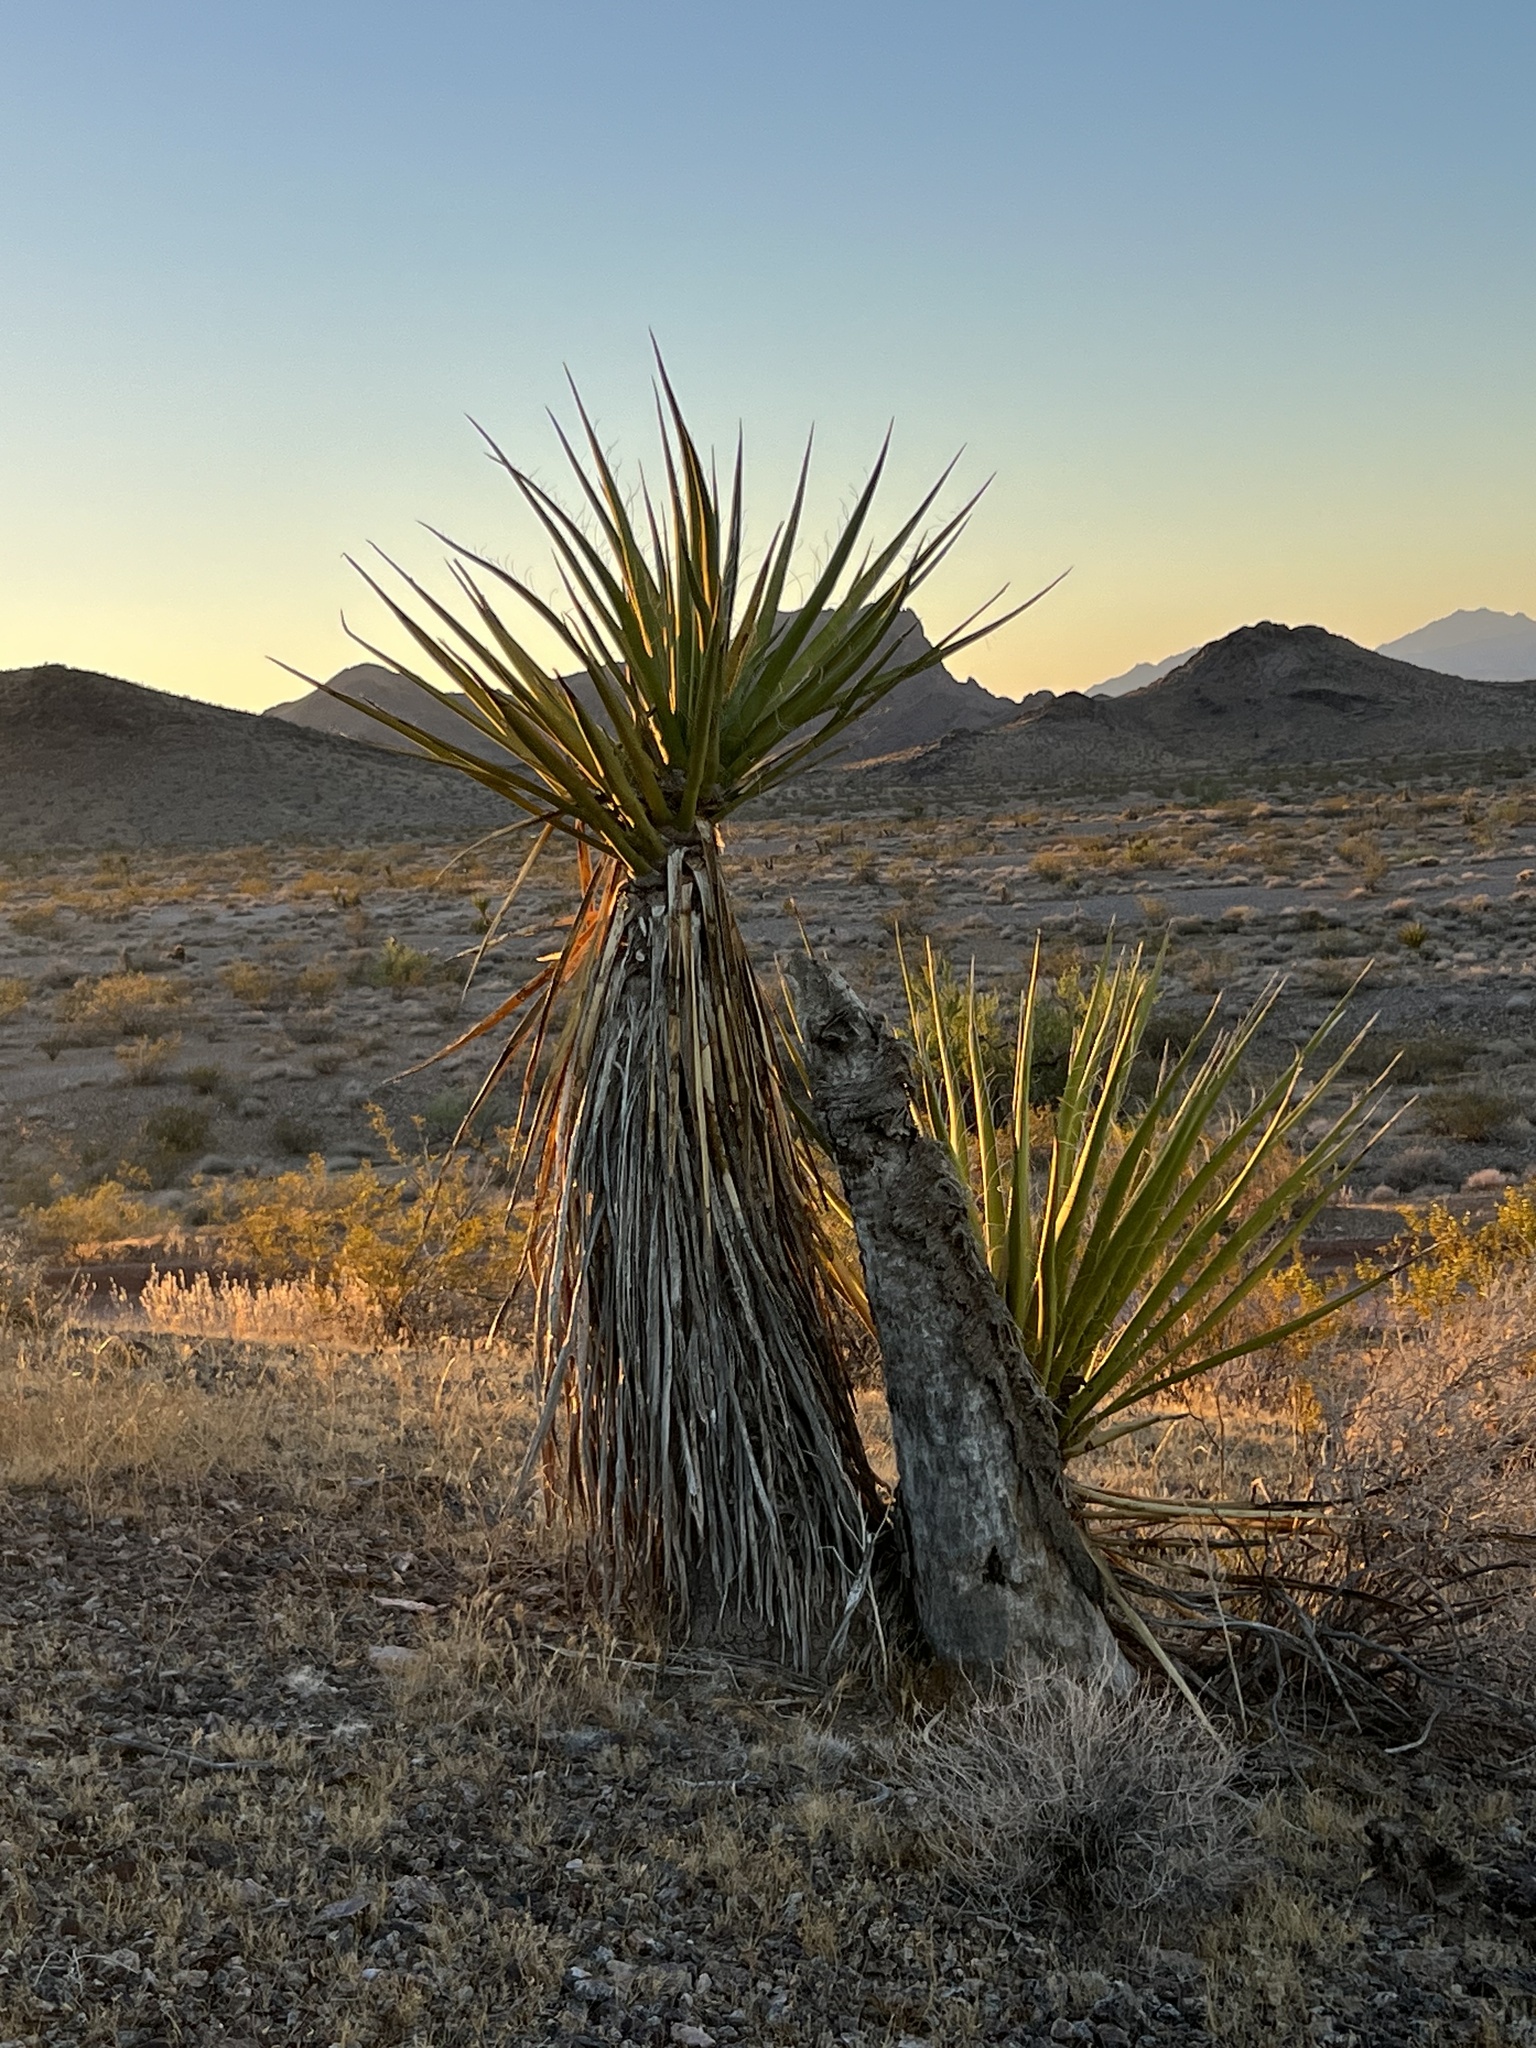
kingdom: Plantae
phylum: Tracheophyta
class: Liliopsida
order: Asparagales
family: Asparagaceae
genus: Yucca
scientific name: Yucca schidigera
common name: Mojave yucca
